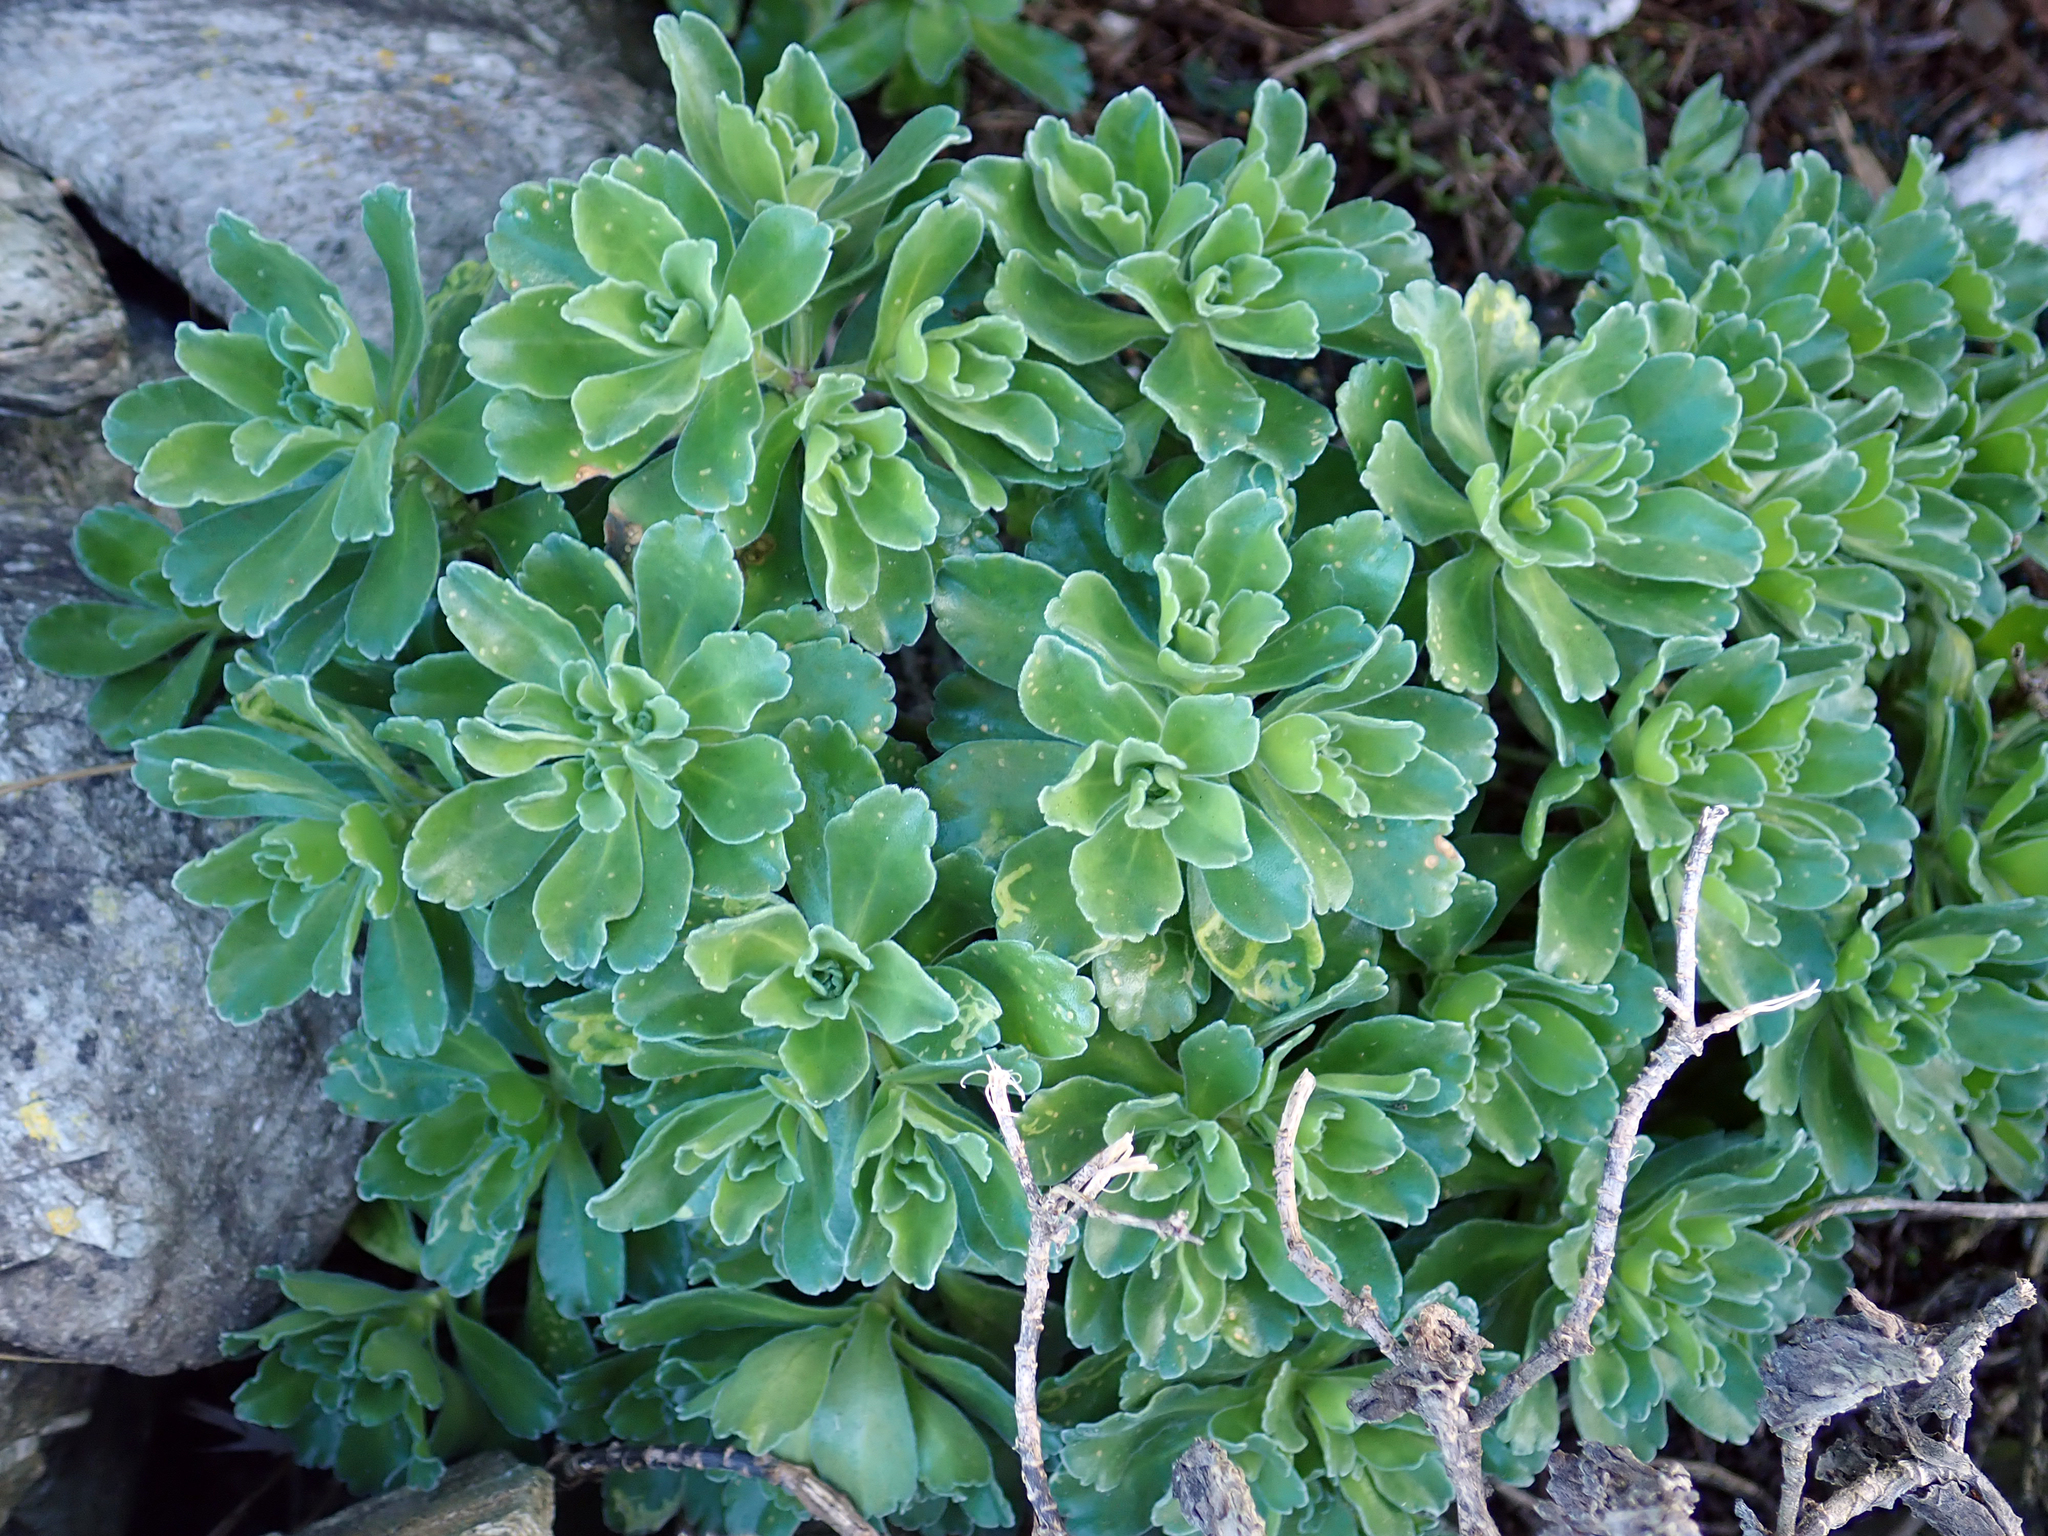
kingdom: Plantae
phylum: Tracheophyta
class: Magnoliopsida
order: Asterales
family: Asteraceae
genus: Leptinella
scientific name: Leptinella featherstonii
